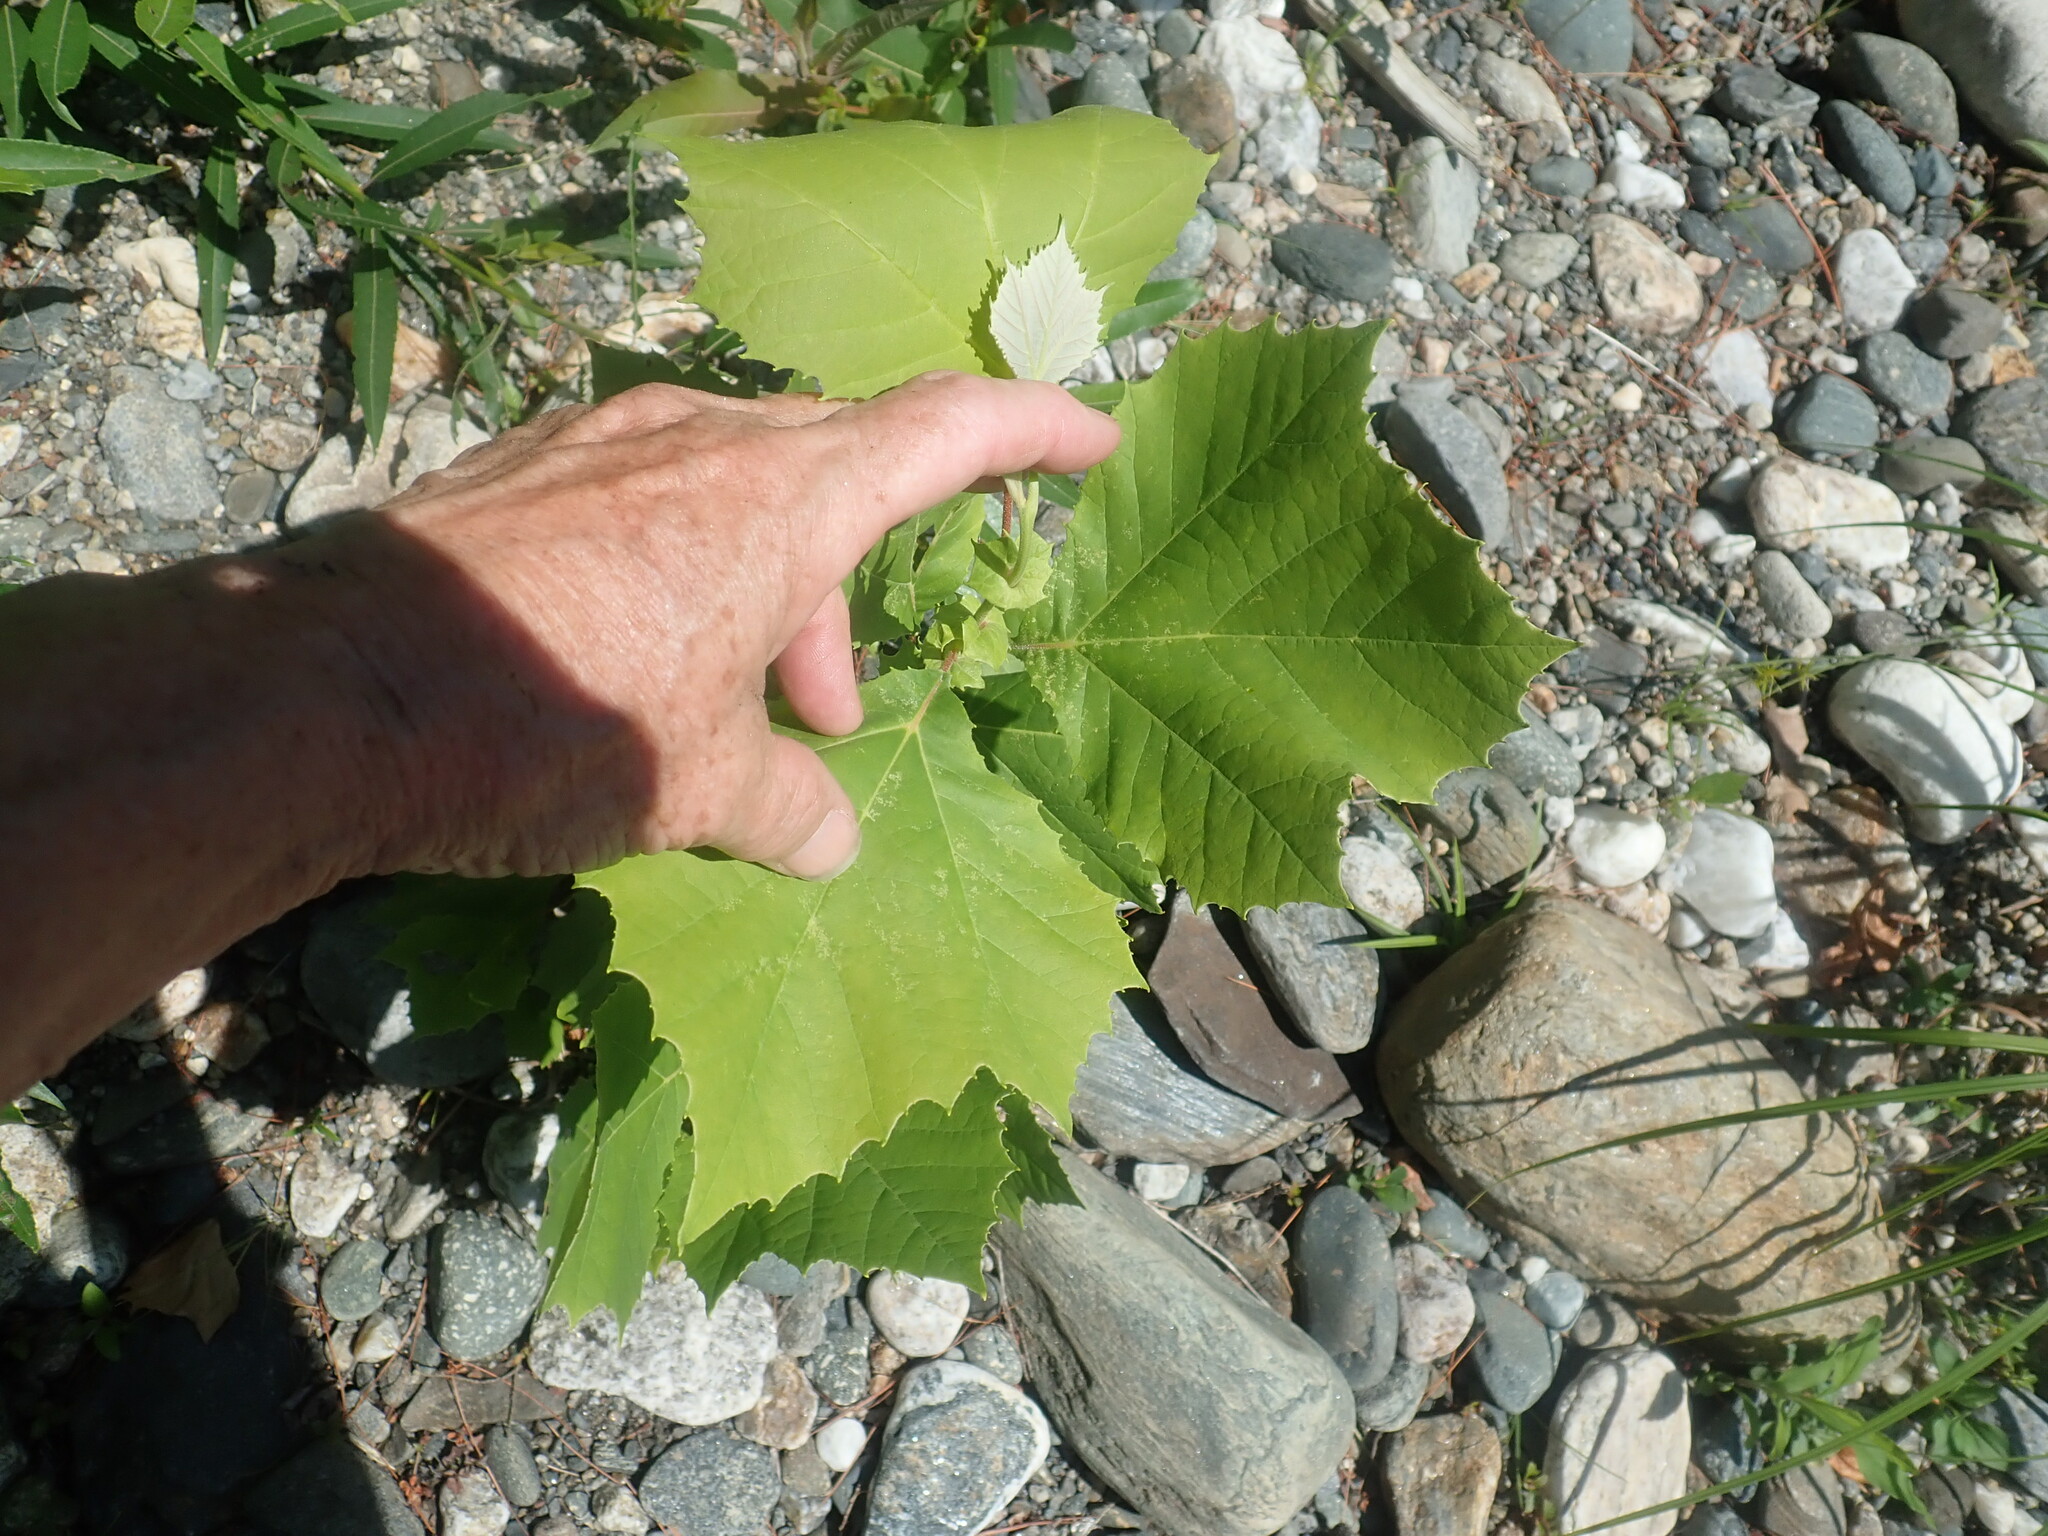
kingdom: Plantae
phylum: Tracheophyta
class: Magnoliopsida
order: Proteales
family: Platanaceae
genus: Platanus
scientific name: Platanus occidentalis
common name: American sycamore
